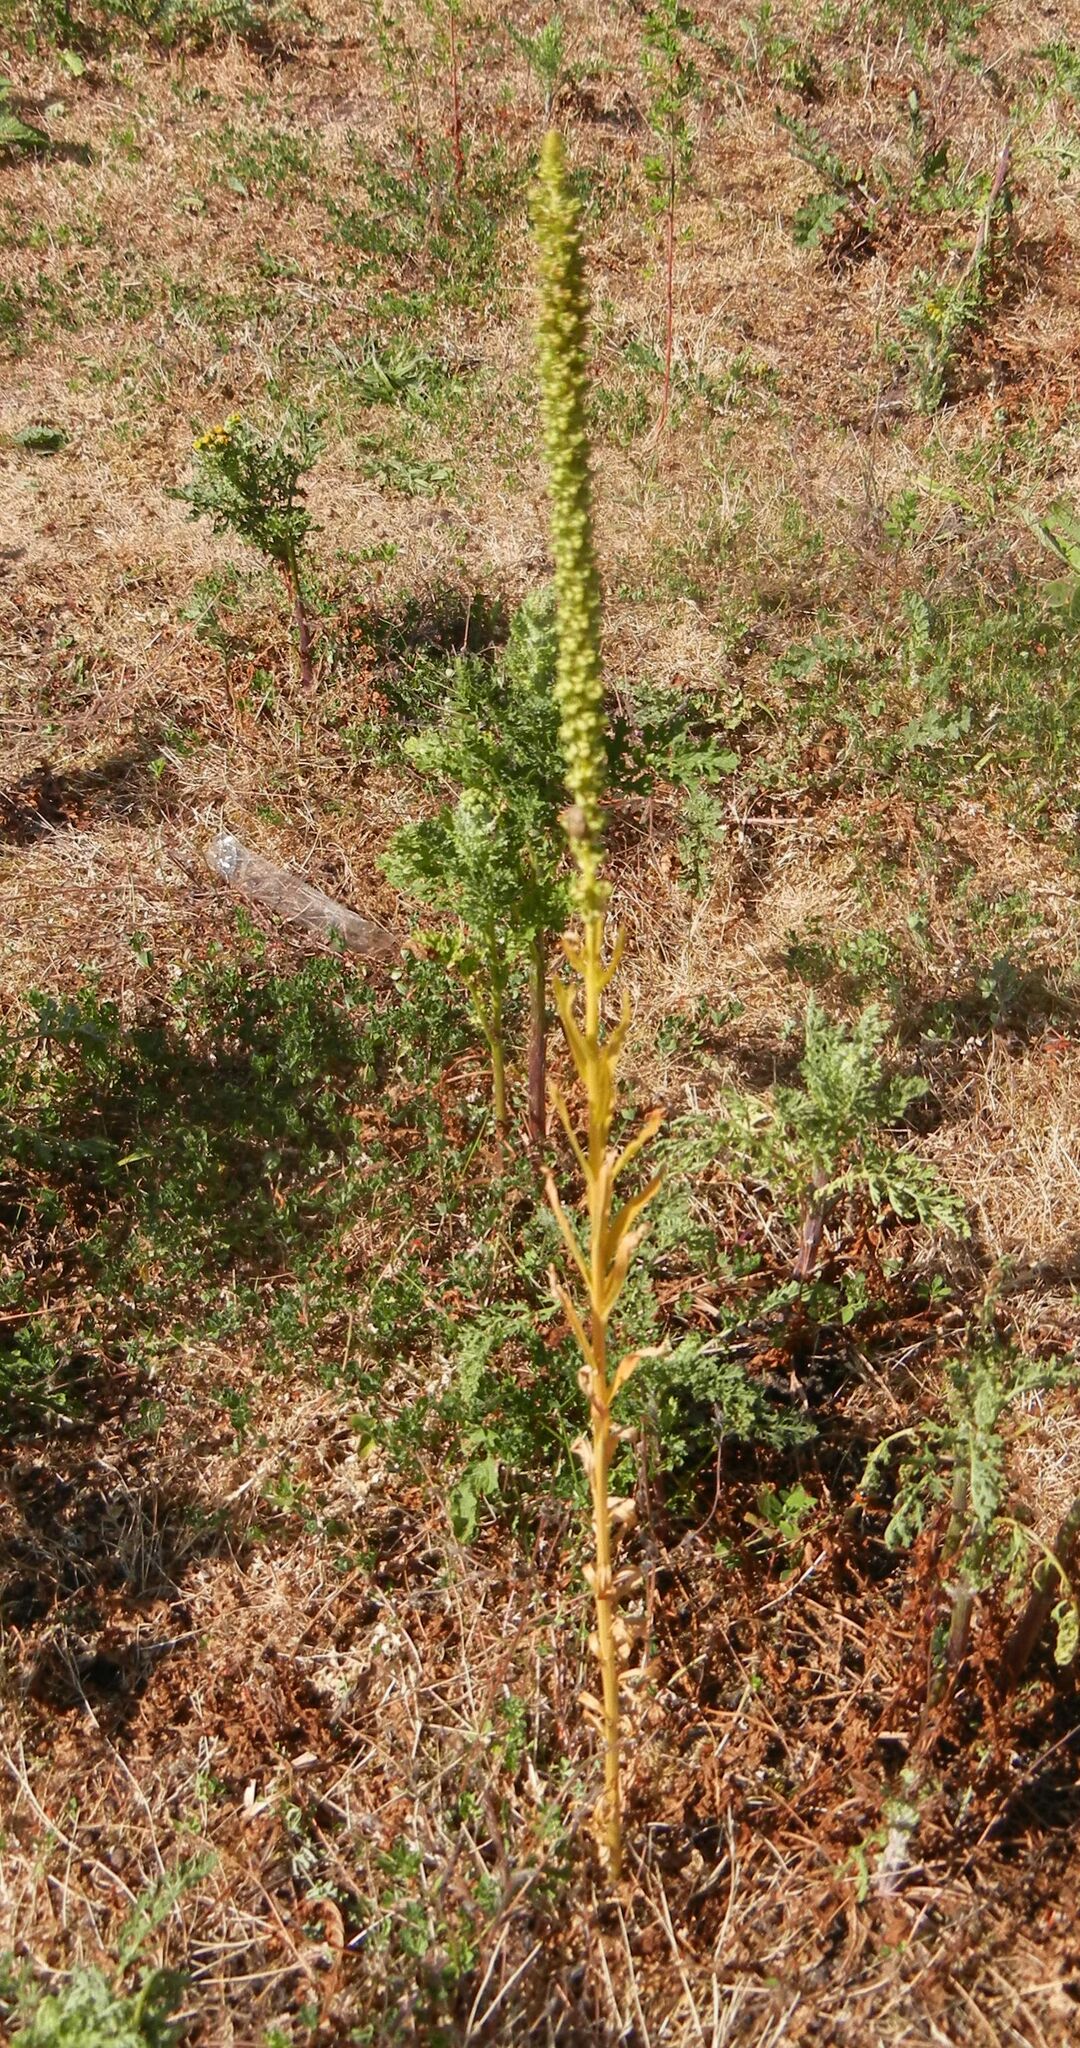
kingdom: Plantae
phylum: Tracheophyta
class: Magnoliopsida
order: Brassicales
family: Resedaceae
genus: Reseda
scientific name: Reseda luteola
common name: Weld
